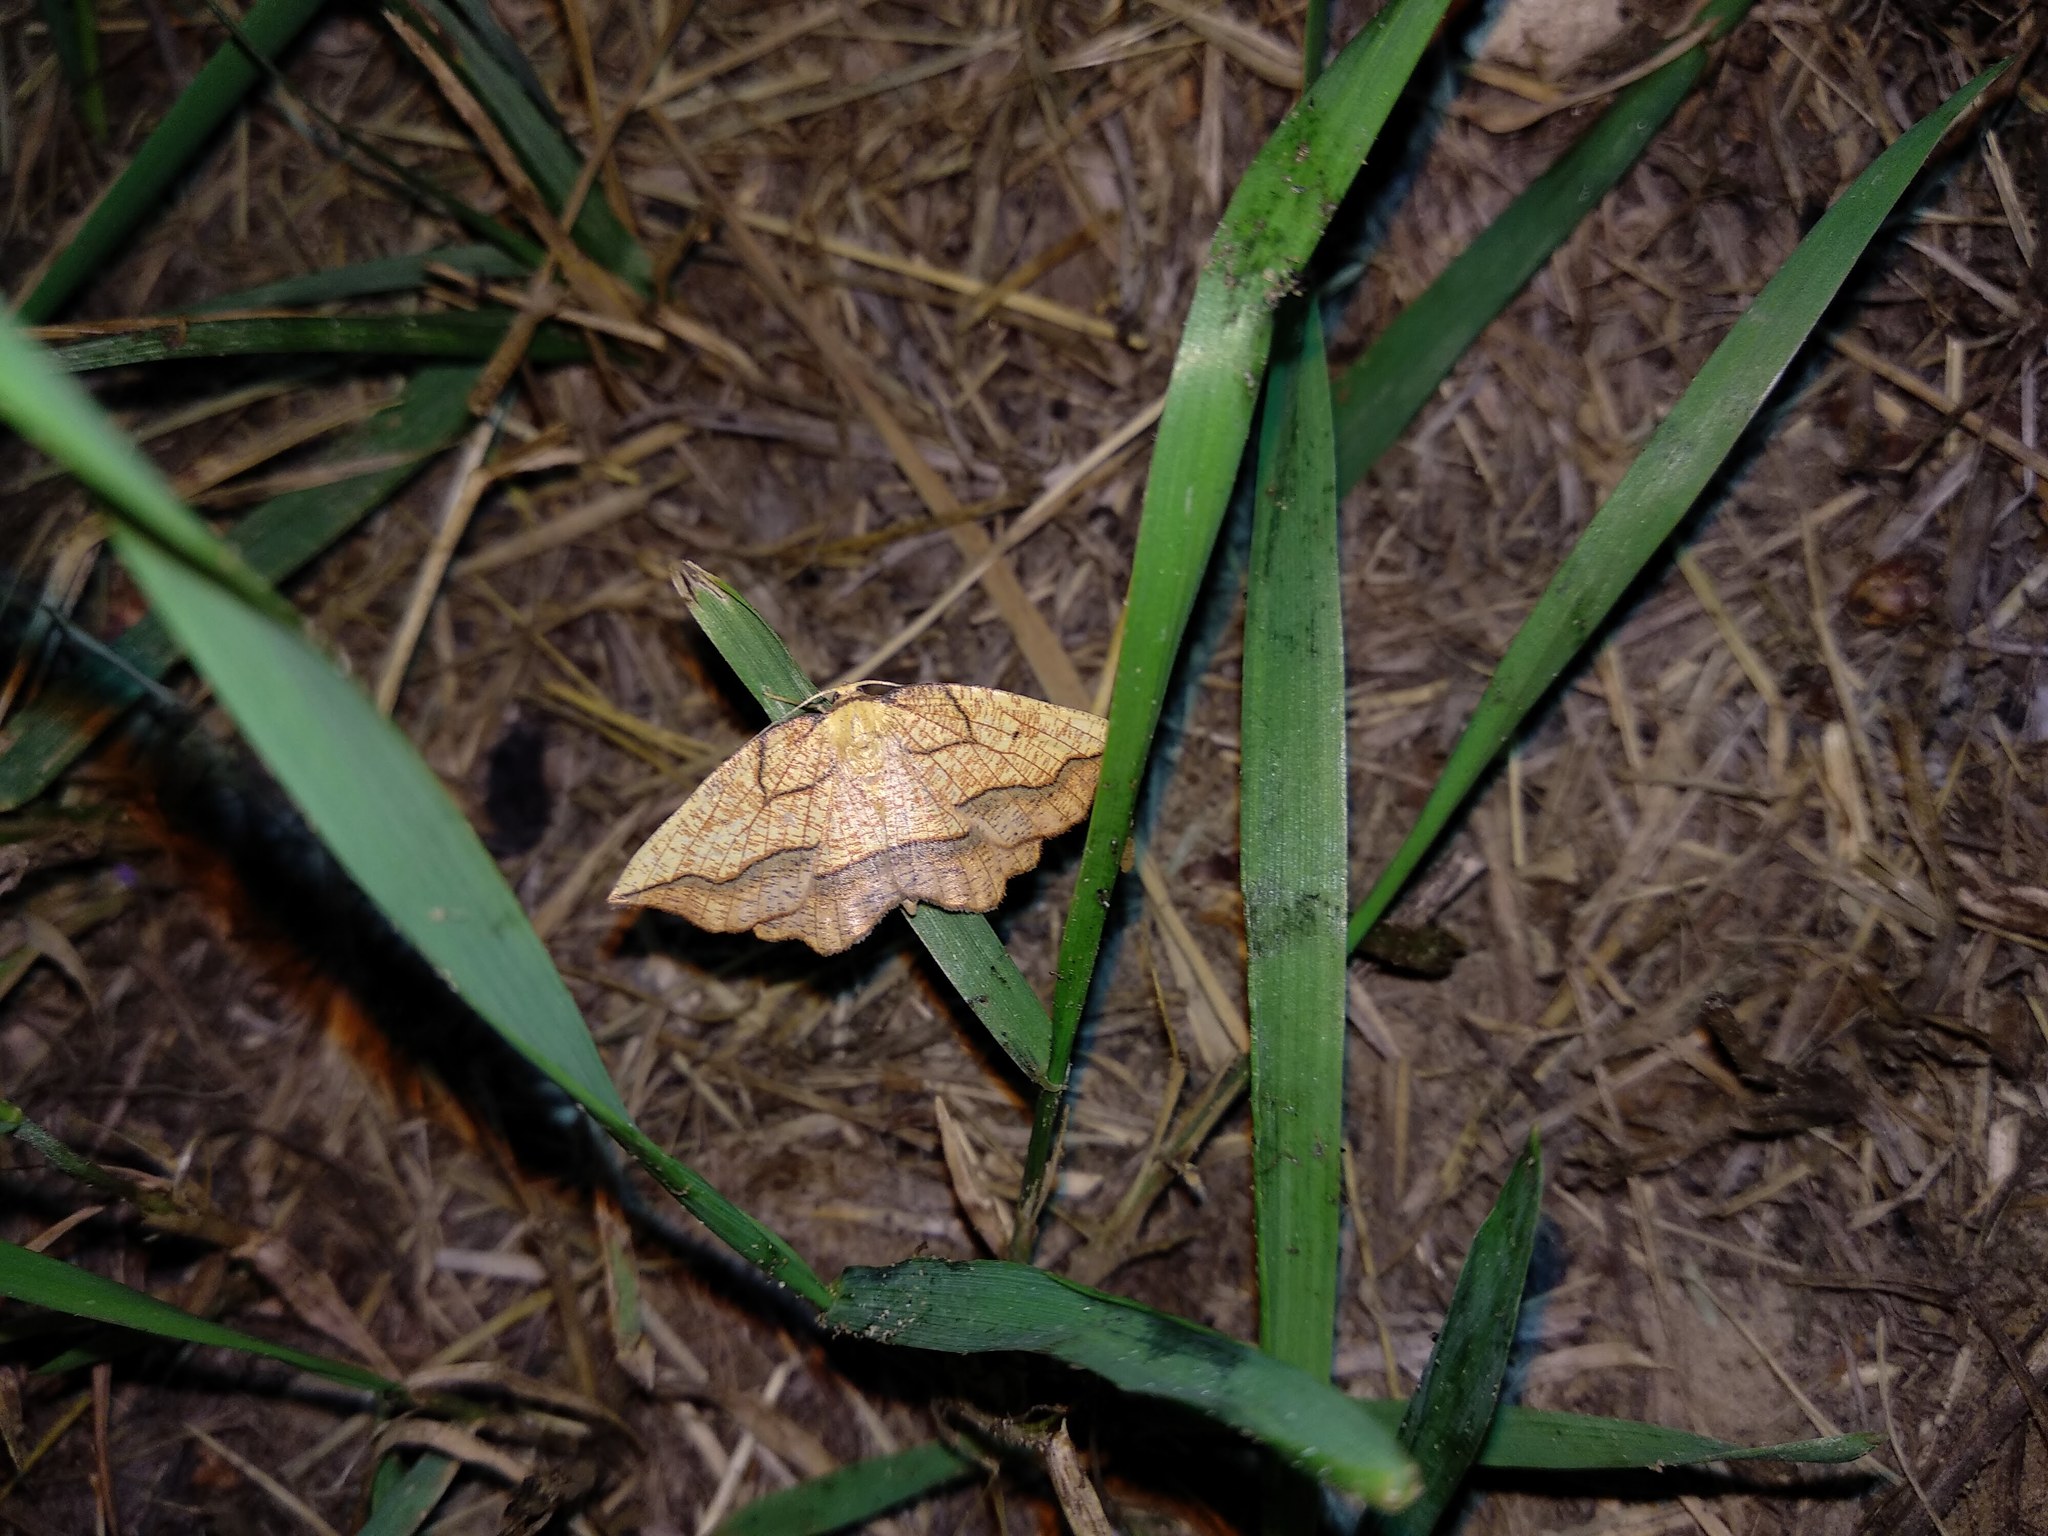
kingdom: Animalia
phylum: Arthropoda
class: Insecta
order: Lepidoptera
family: Geometridae
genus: Epione
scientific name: Epione repandaria
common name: Bordered beauty
